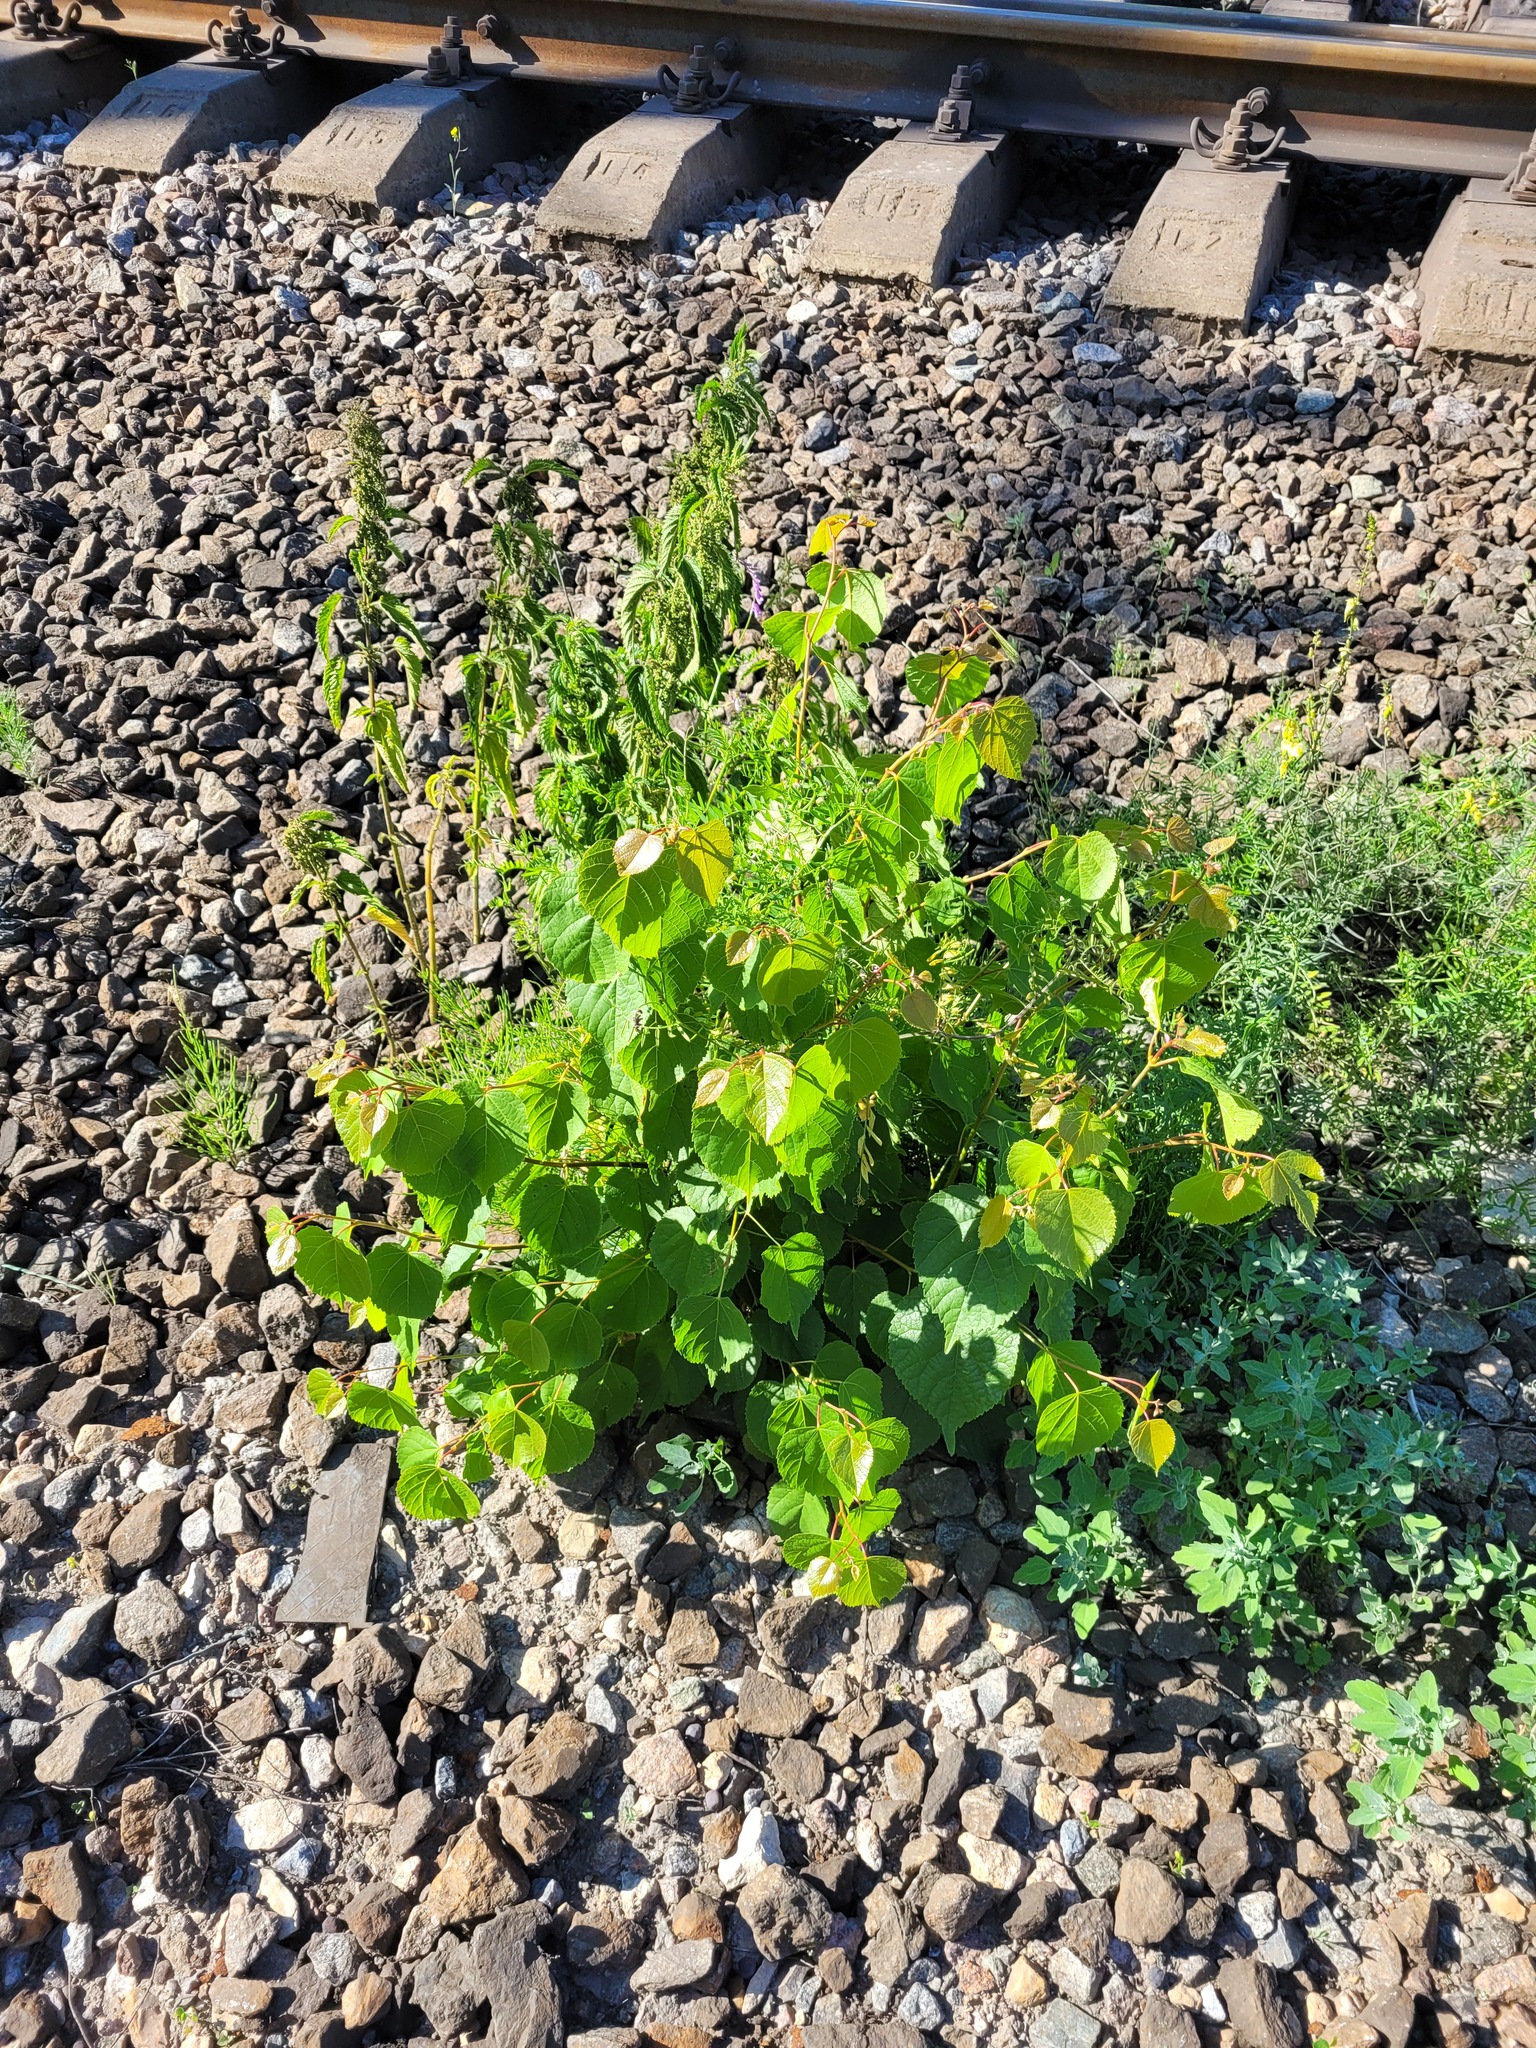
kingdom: Plantae
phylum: Tracheophyta
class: Magnoliopsida
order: Malvales
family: Malvaceae
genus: Tilia
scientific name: Tilia cordata
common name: Small-leaved lime
